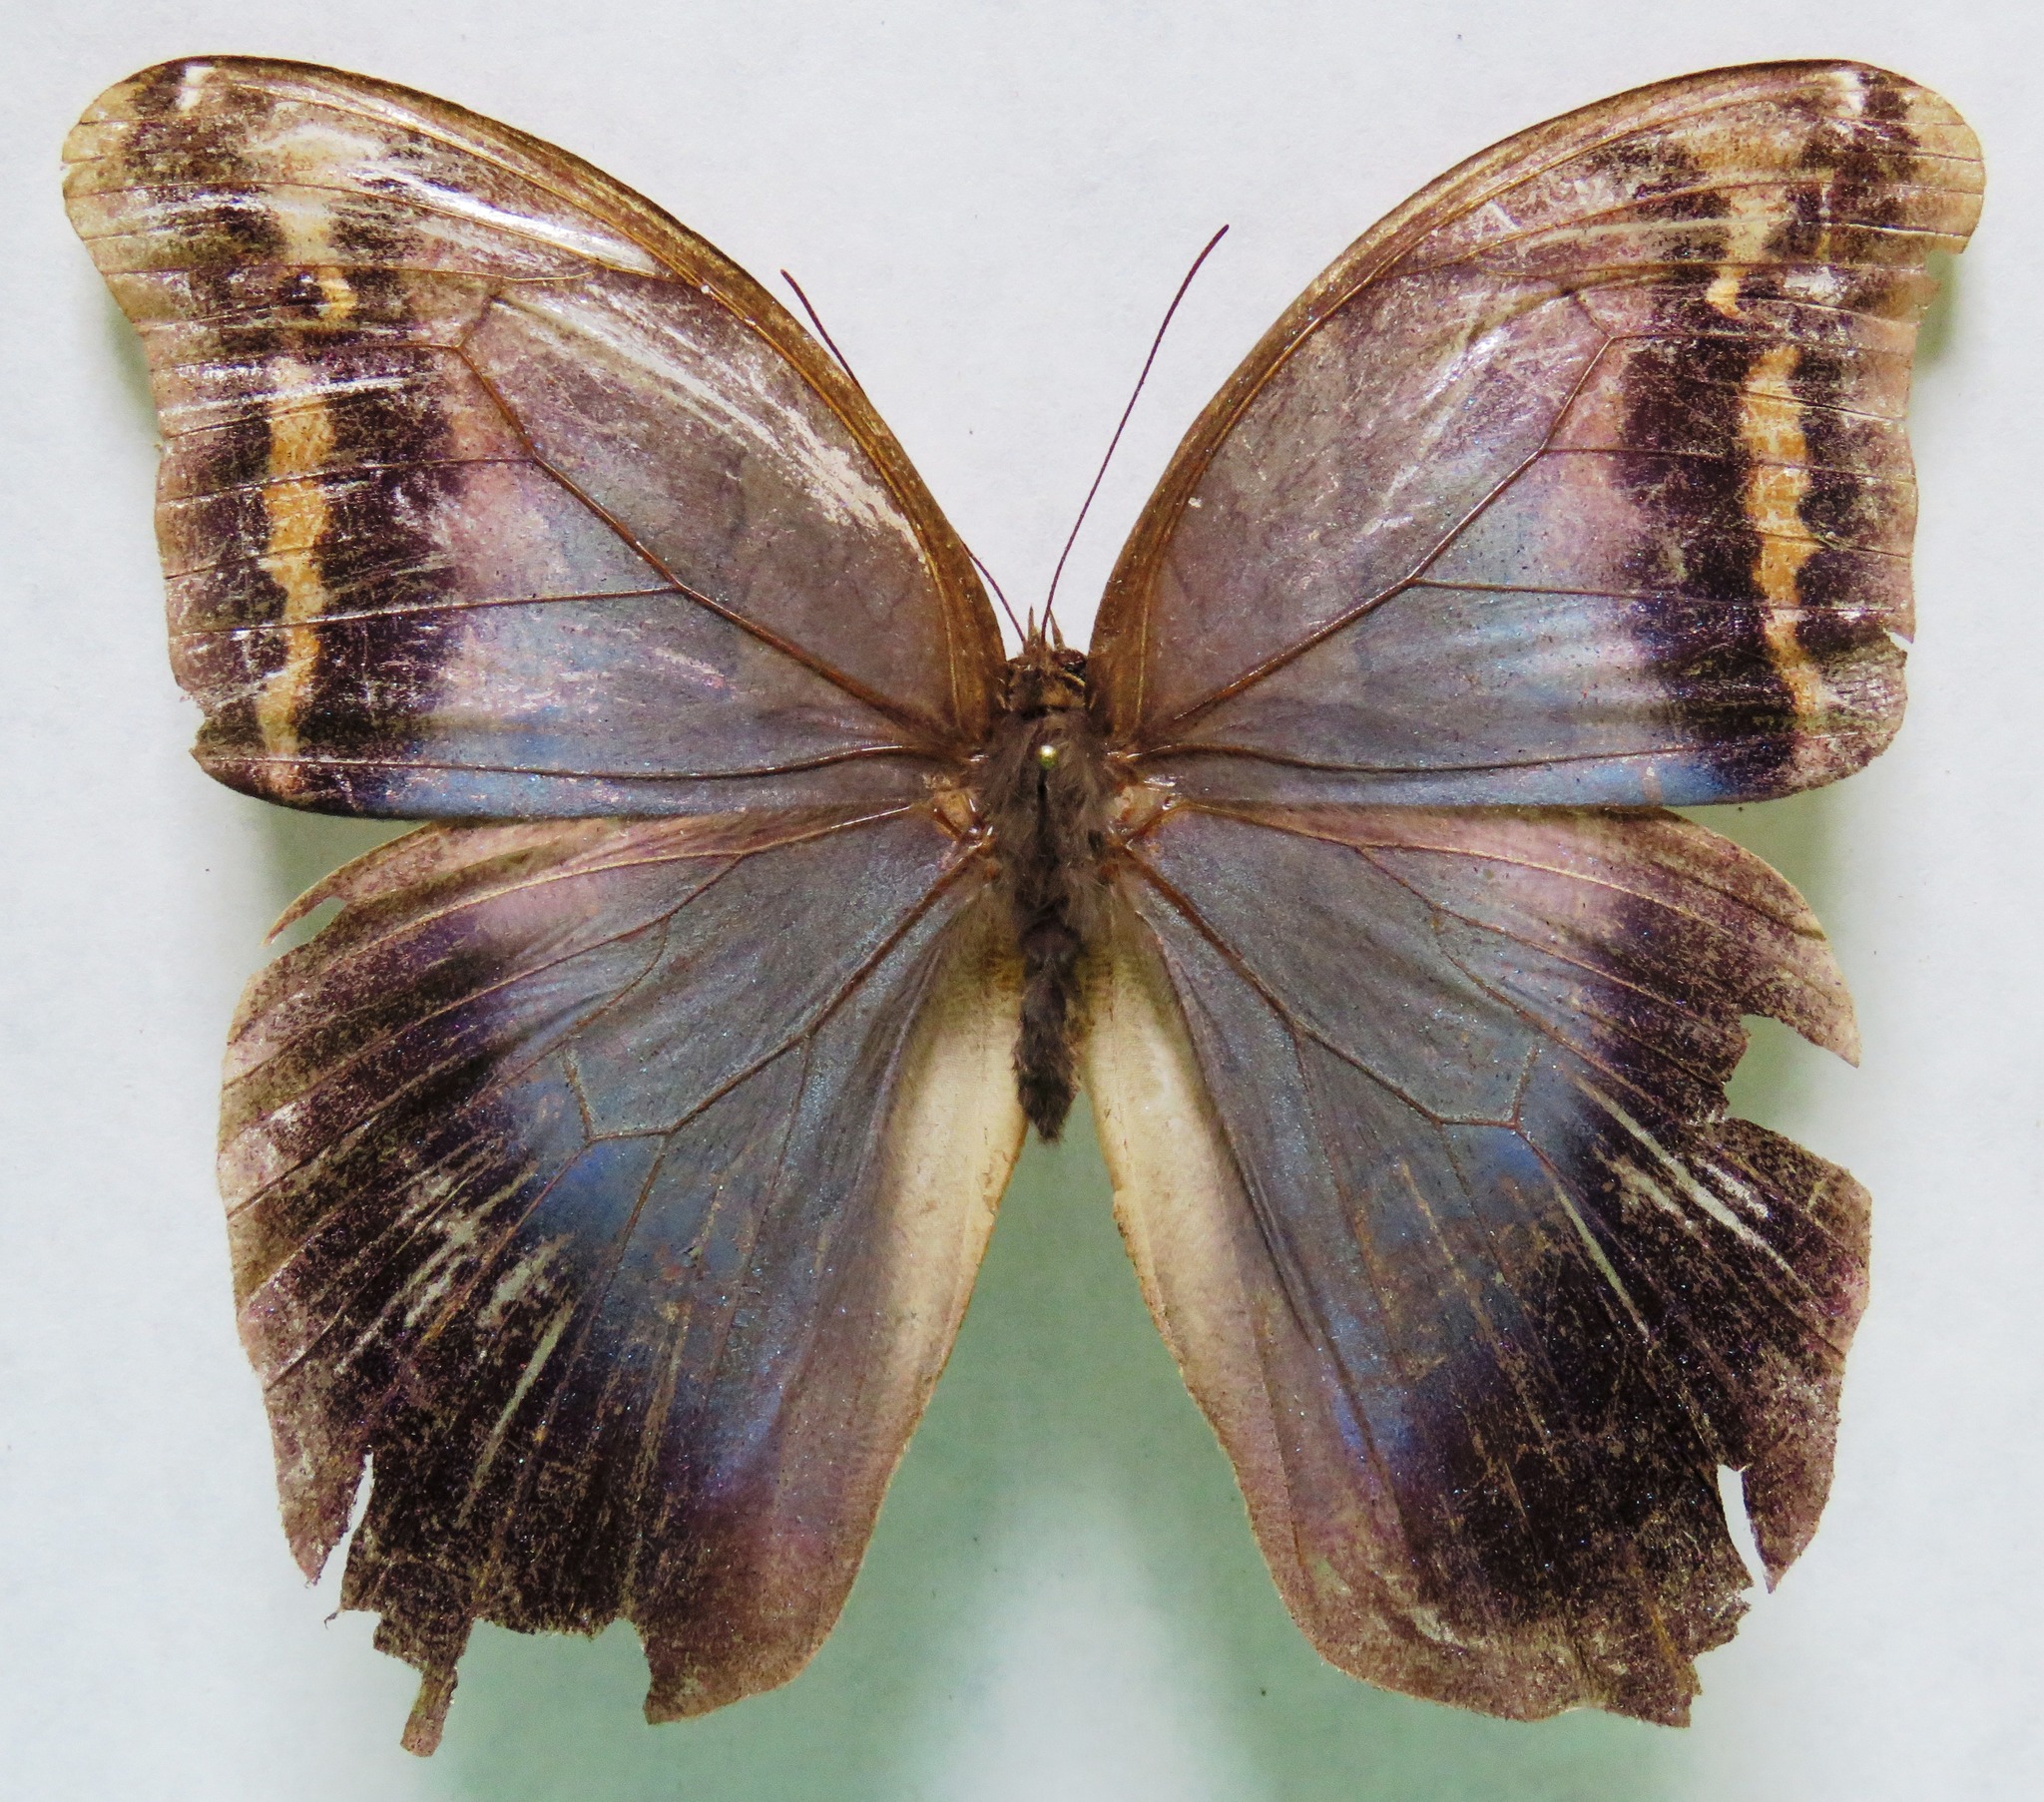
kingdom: Animalia
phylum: Arthropoda
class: Insecta
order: Lepidoptera
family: Nymphalidae
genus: Eryphanis
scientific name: Eryphanis lycomedon
